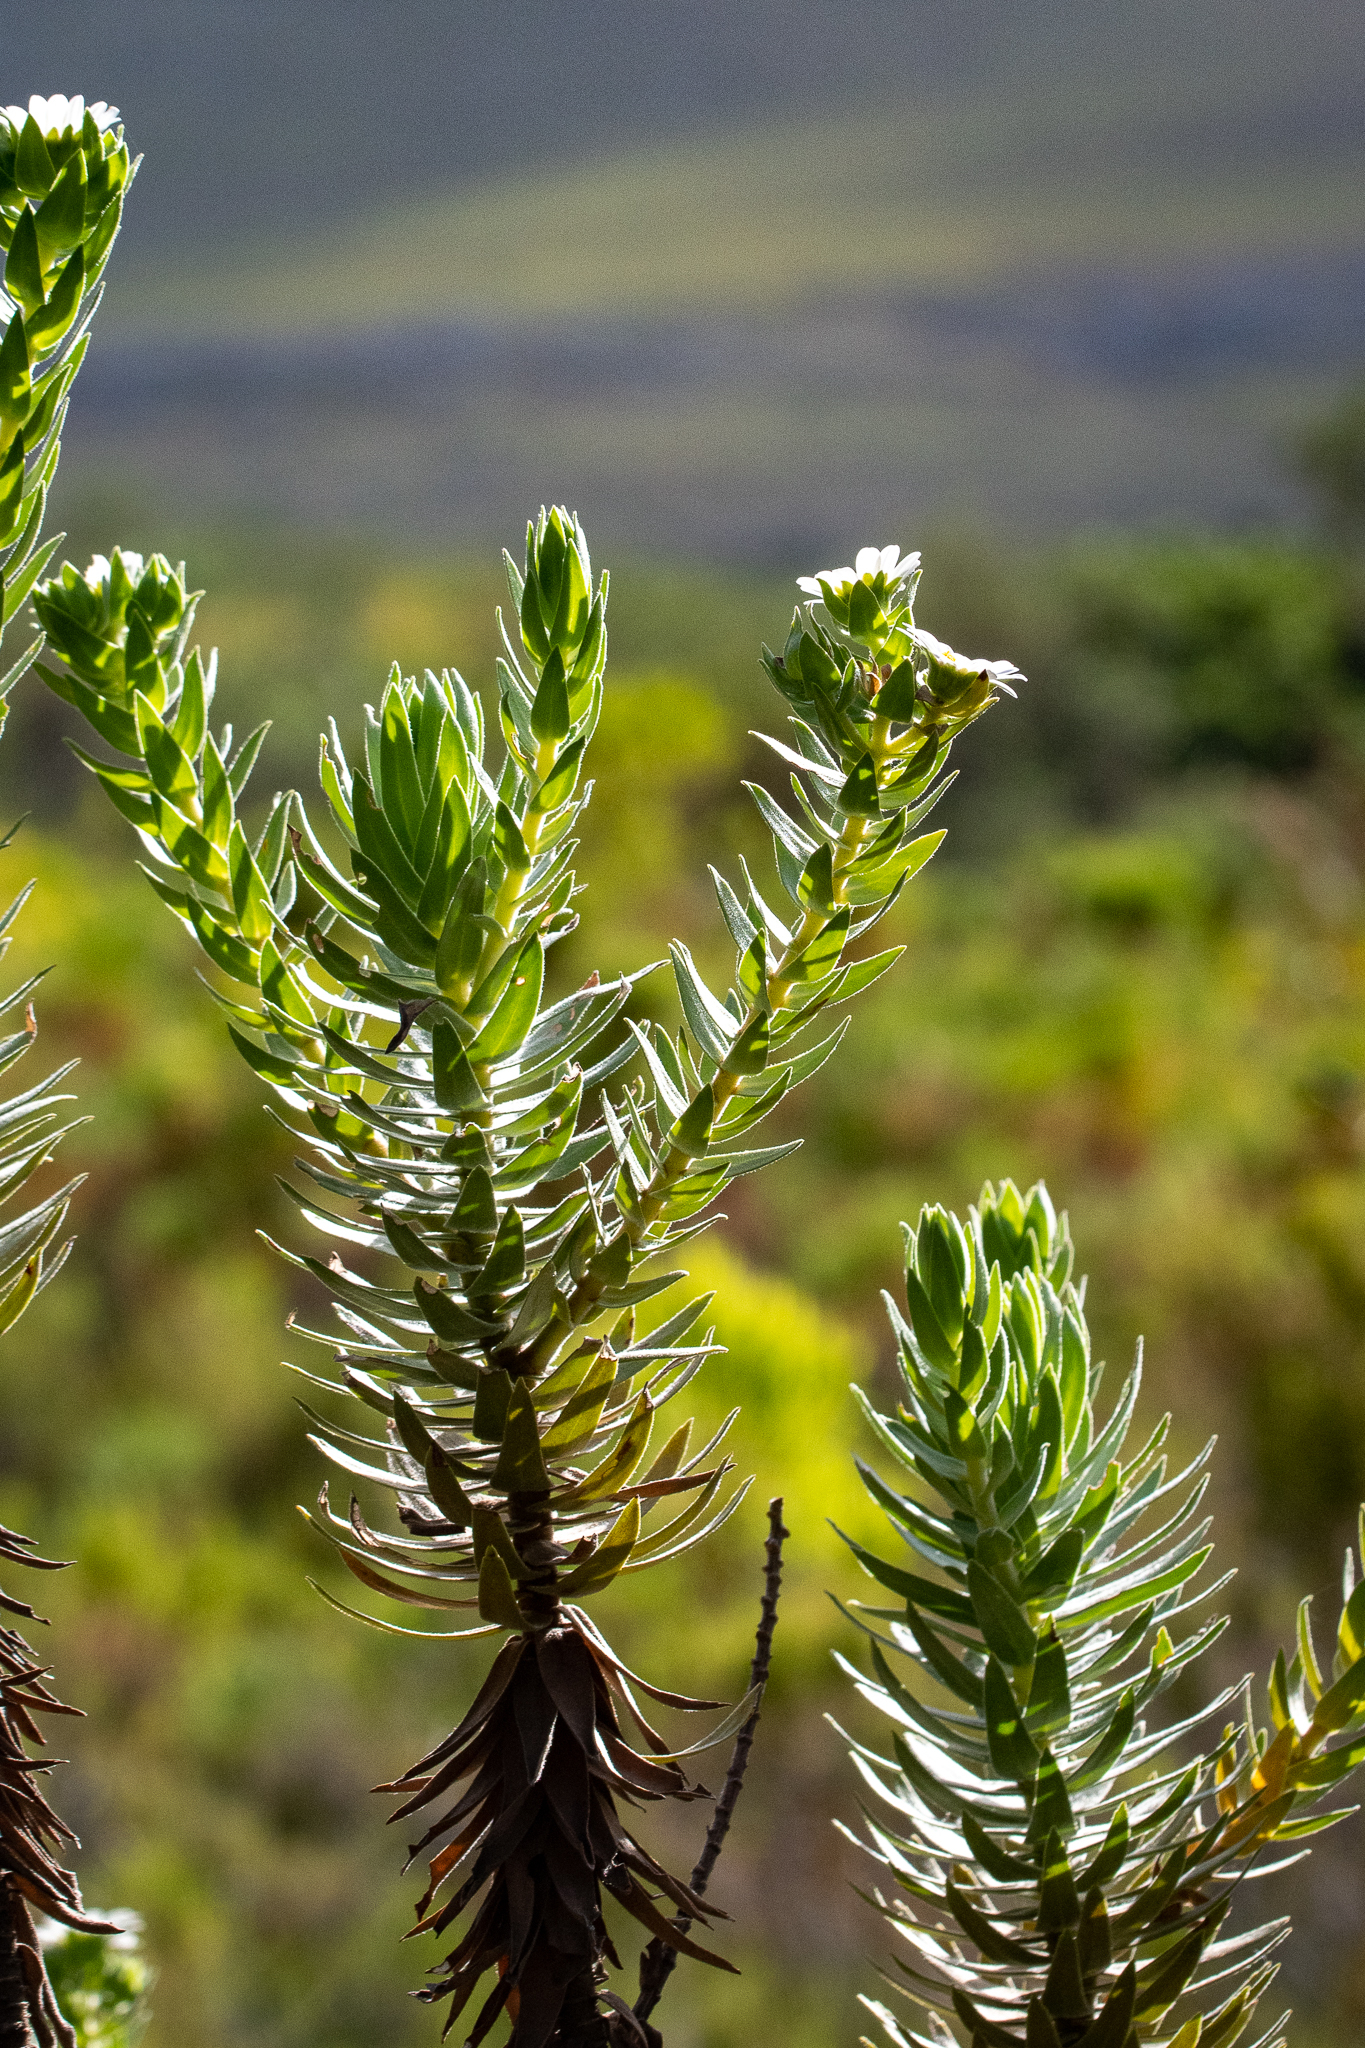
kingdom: Plantae
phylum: Tracheophyta
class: Magnoliopsida
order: Asterales
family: Asteraceae
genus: Osmitopsis
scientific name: Osmitopsis asteriscoides
